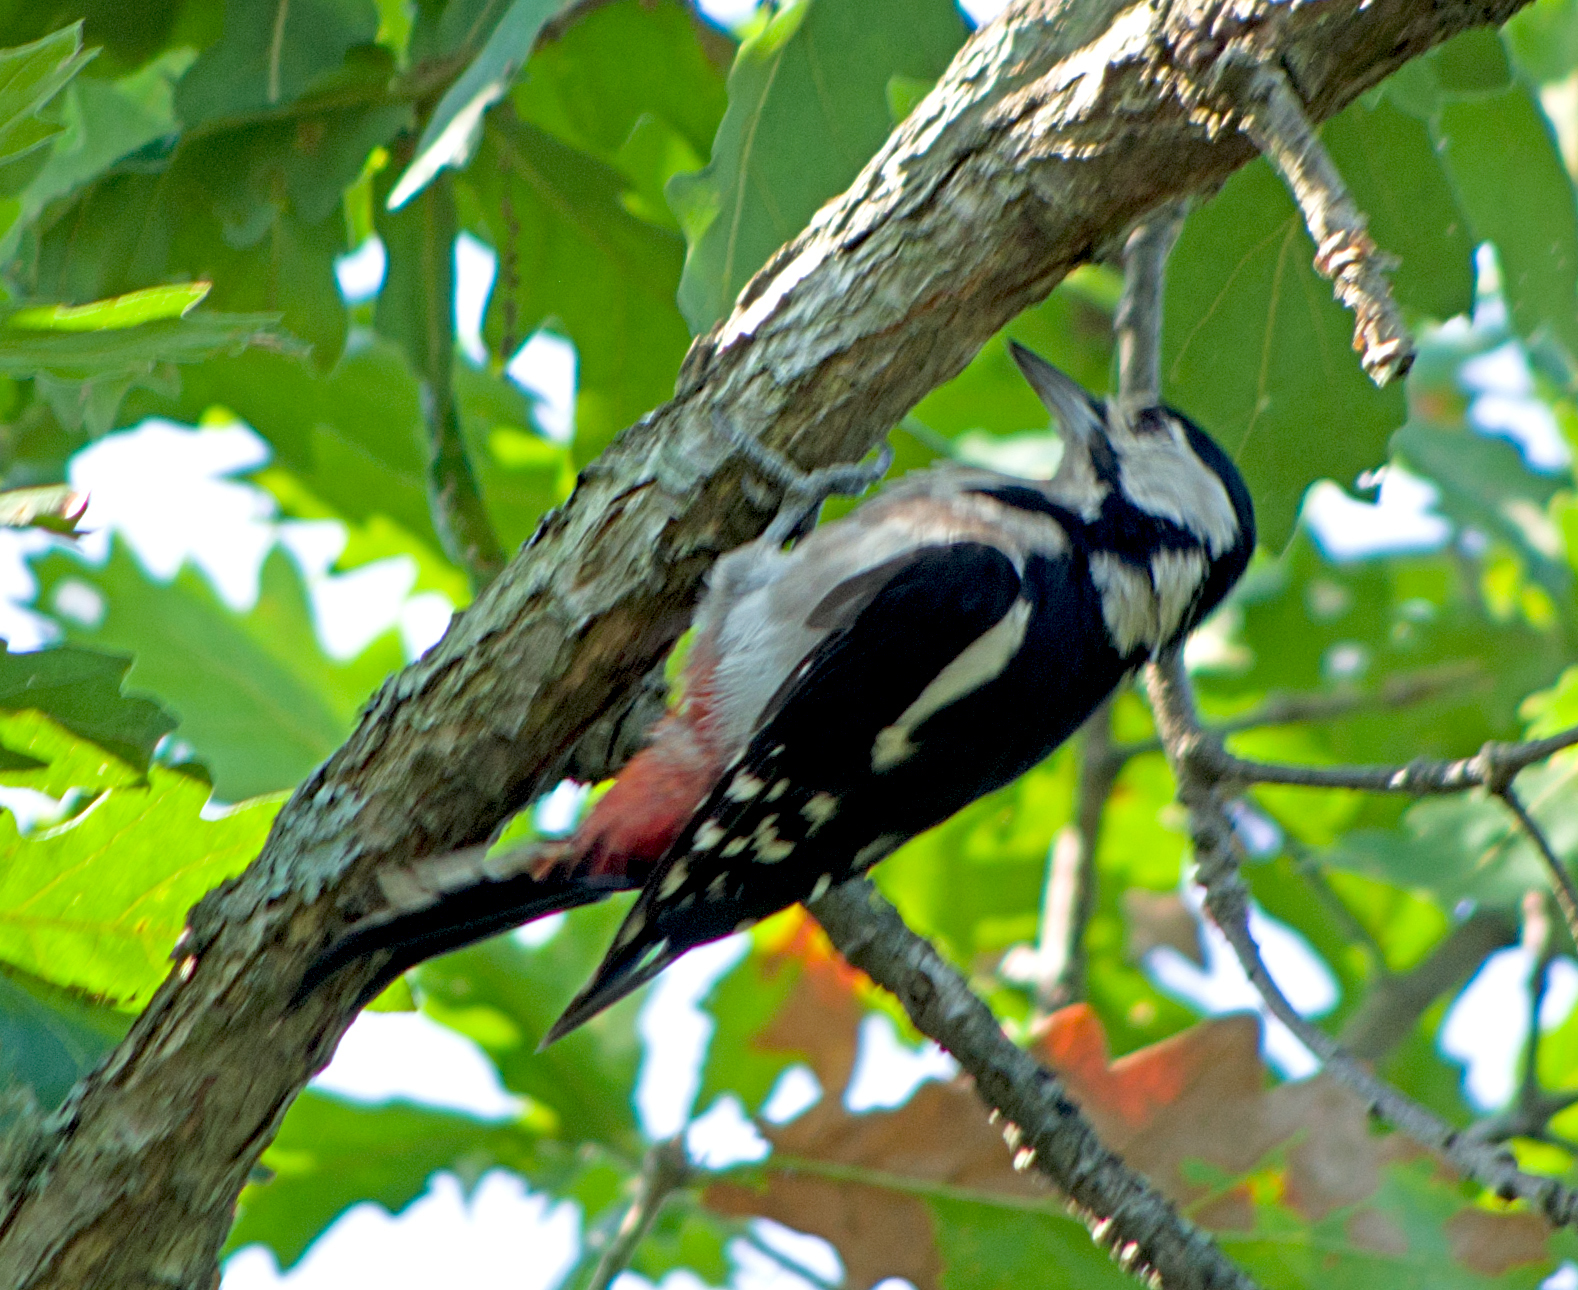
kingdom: Animalia
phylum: Chordata
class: Aves
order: Piciformes
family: Picidae
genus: Dendrocopos
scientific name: Dendrocopos major
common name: Great spotted woodpecker
